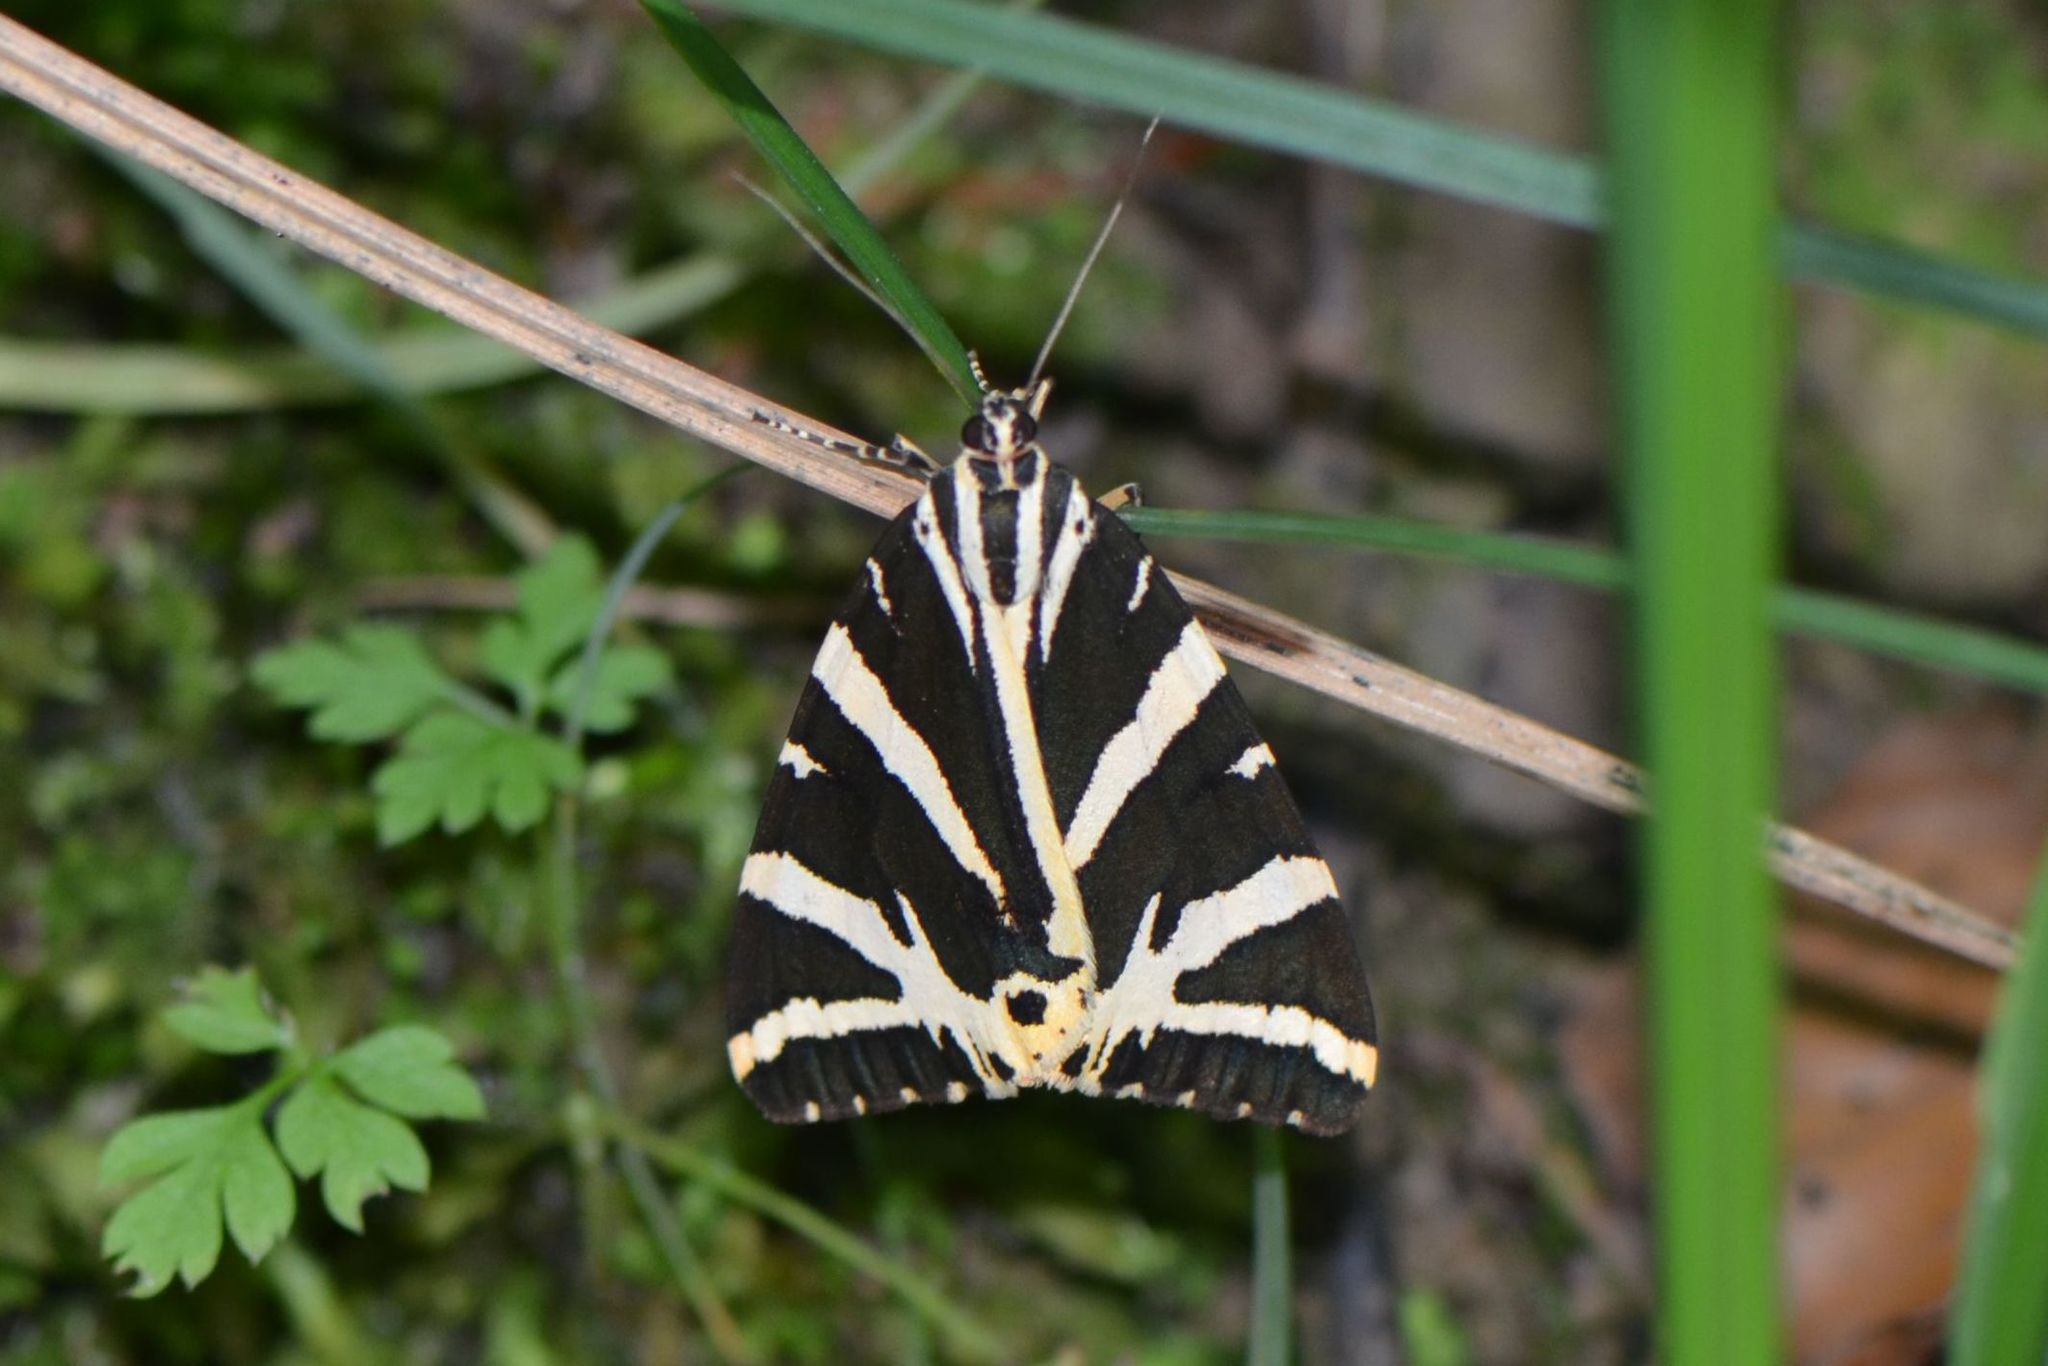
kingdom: Animalia
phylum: Arthropoda
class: Insecta
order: Lepidoptera
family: Erebidae
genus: Euplagia
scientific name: Euplagia quadripunctaria
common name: Jersey tiger
